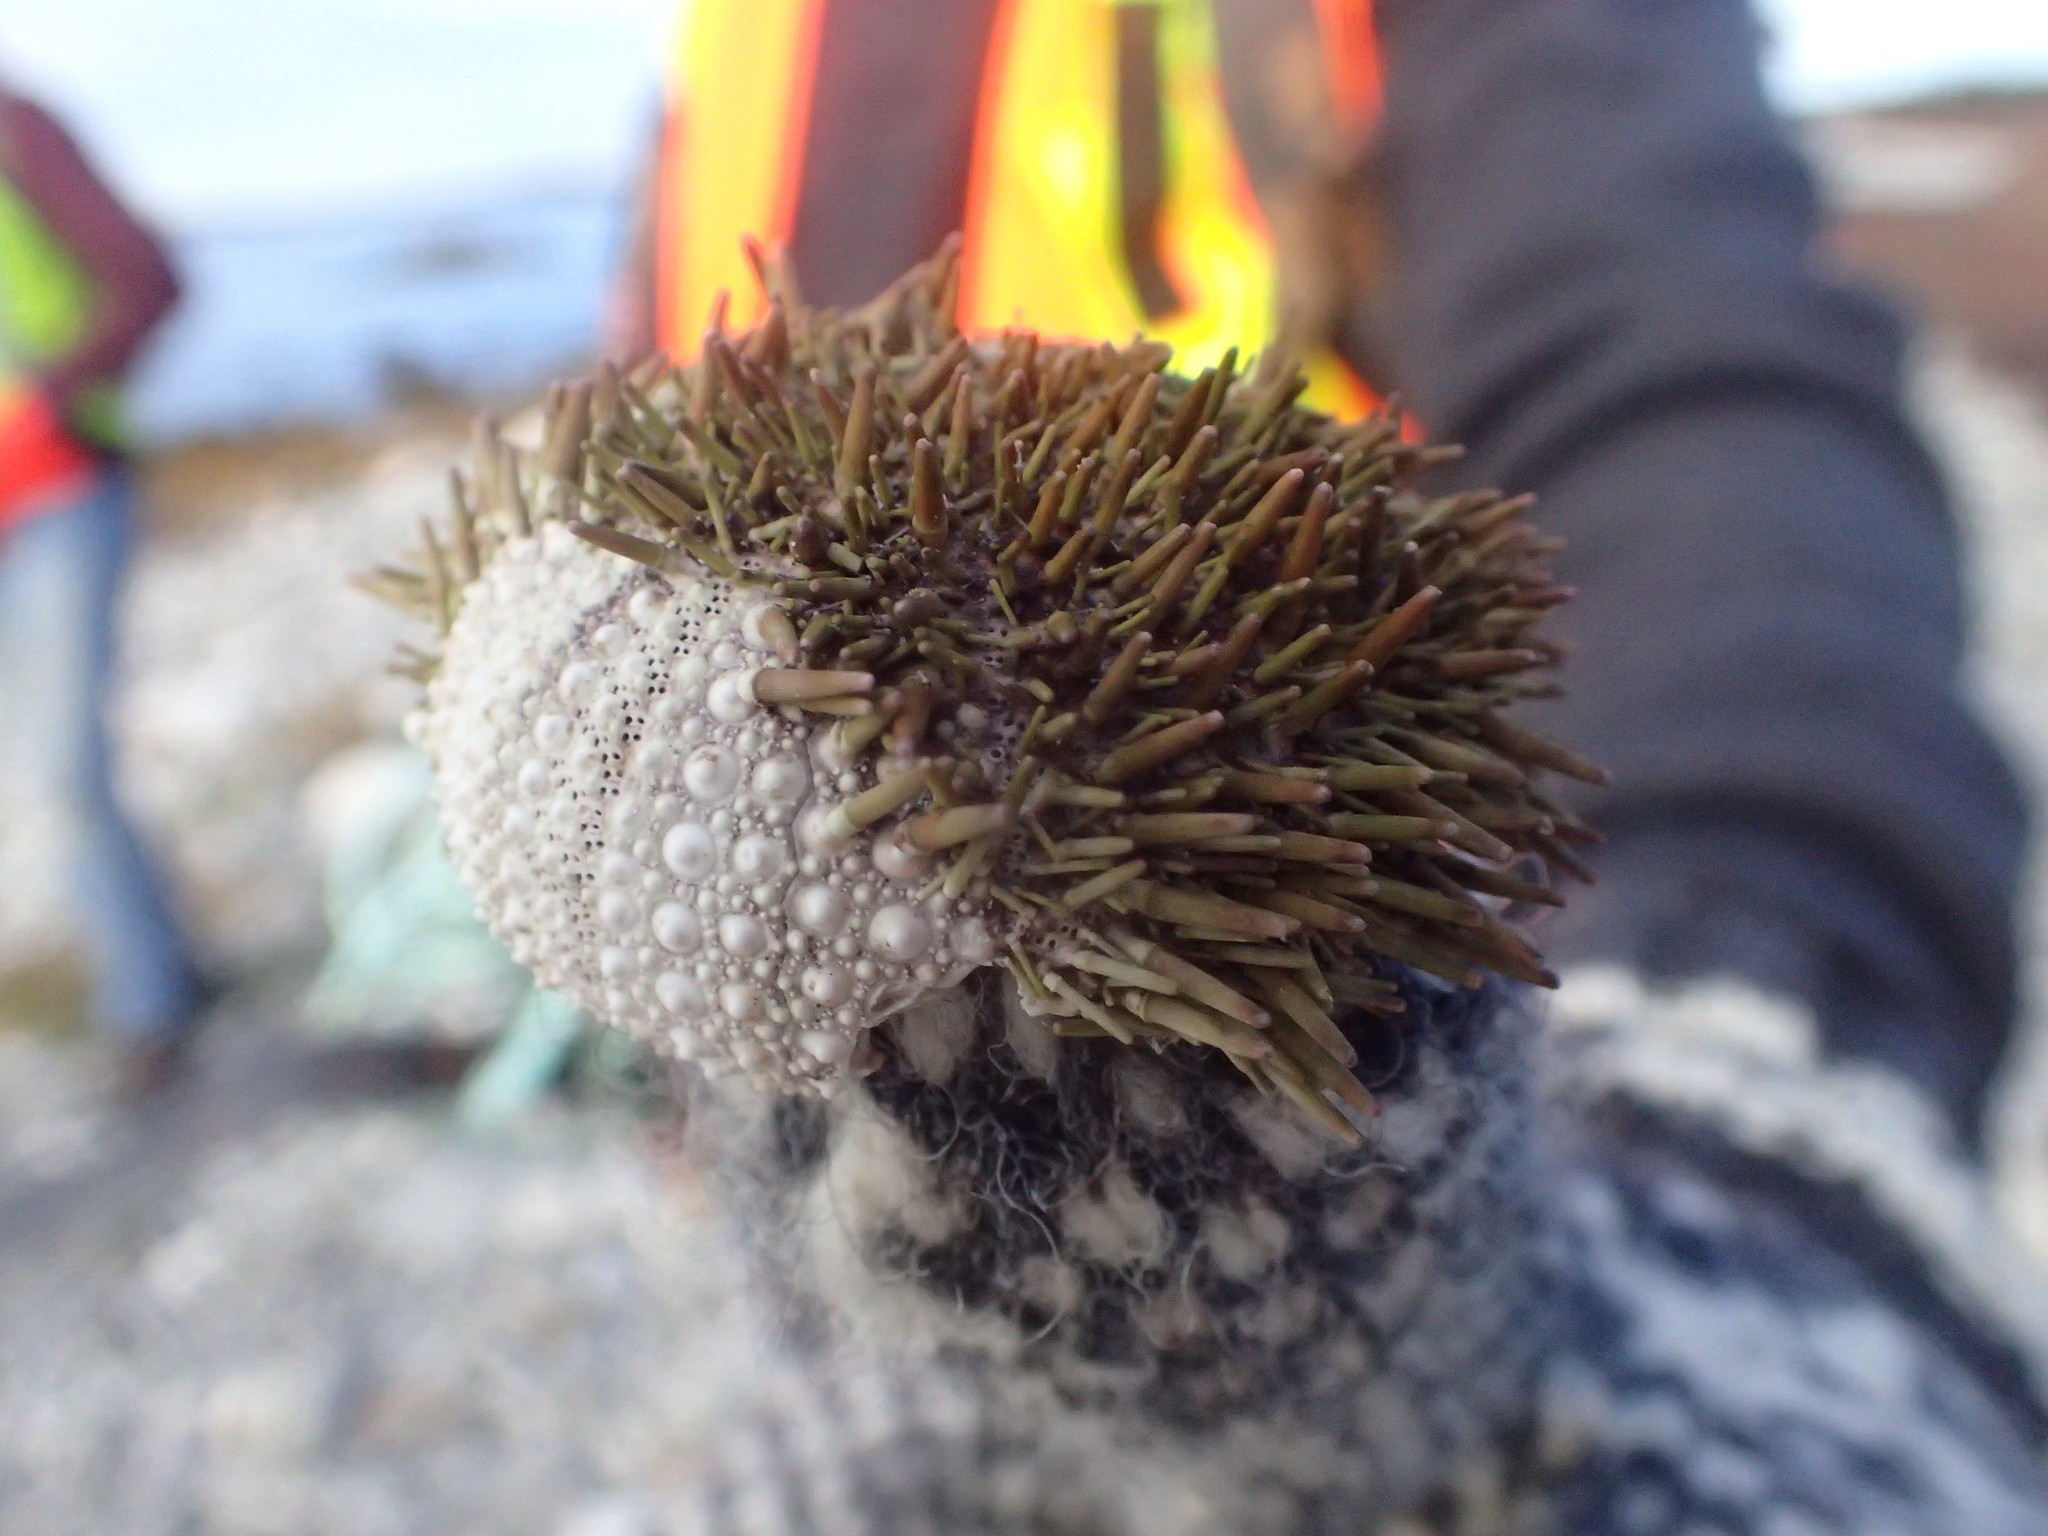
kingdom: Animalia
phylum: Echinodermata
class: Echinoidea
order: Camarodonta
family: Strongylocentrotidae
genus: Strongylocentrotus
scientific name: Strongylocentrotus droebachiensis
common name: Northern sea urchin
